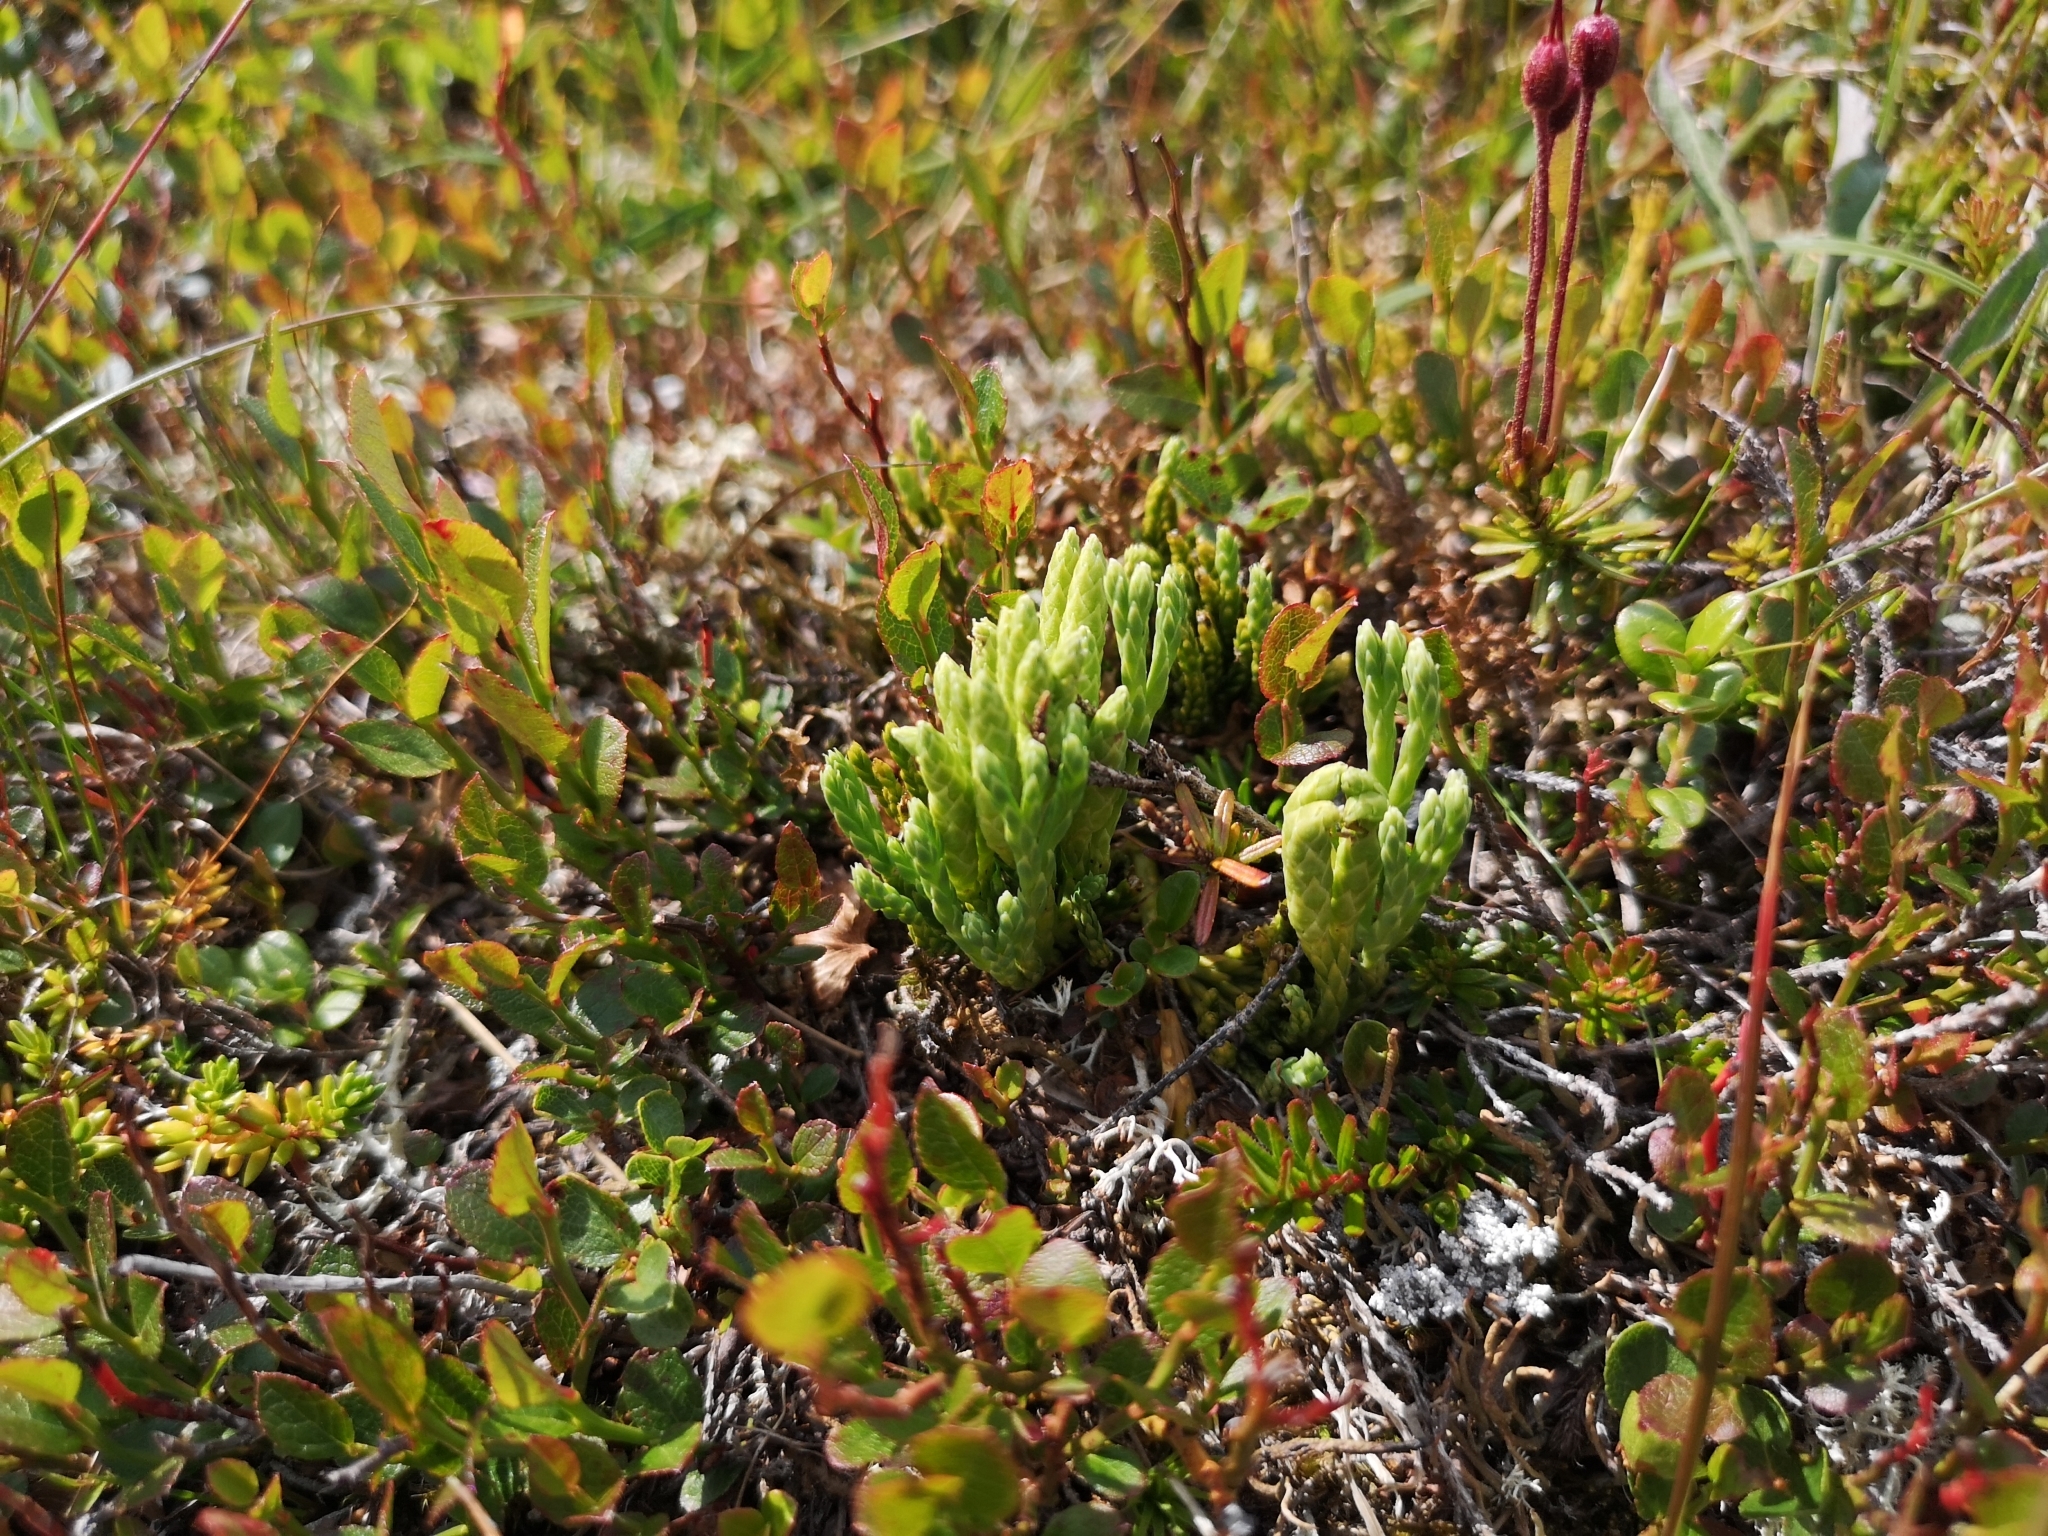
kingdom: Plantae
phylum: Tracheophyta
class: Lycopodiopsida
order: Lycopodiales
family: Lycopodiaceae
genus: Diphasiastrum
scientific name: Diphasiastrum alpinum
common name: Alpine clubmoss
